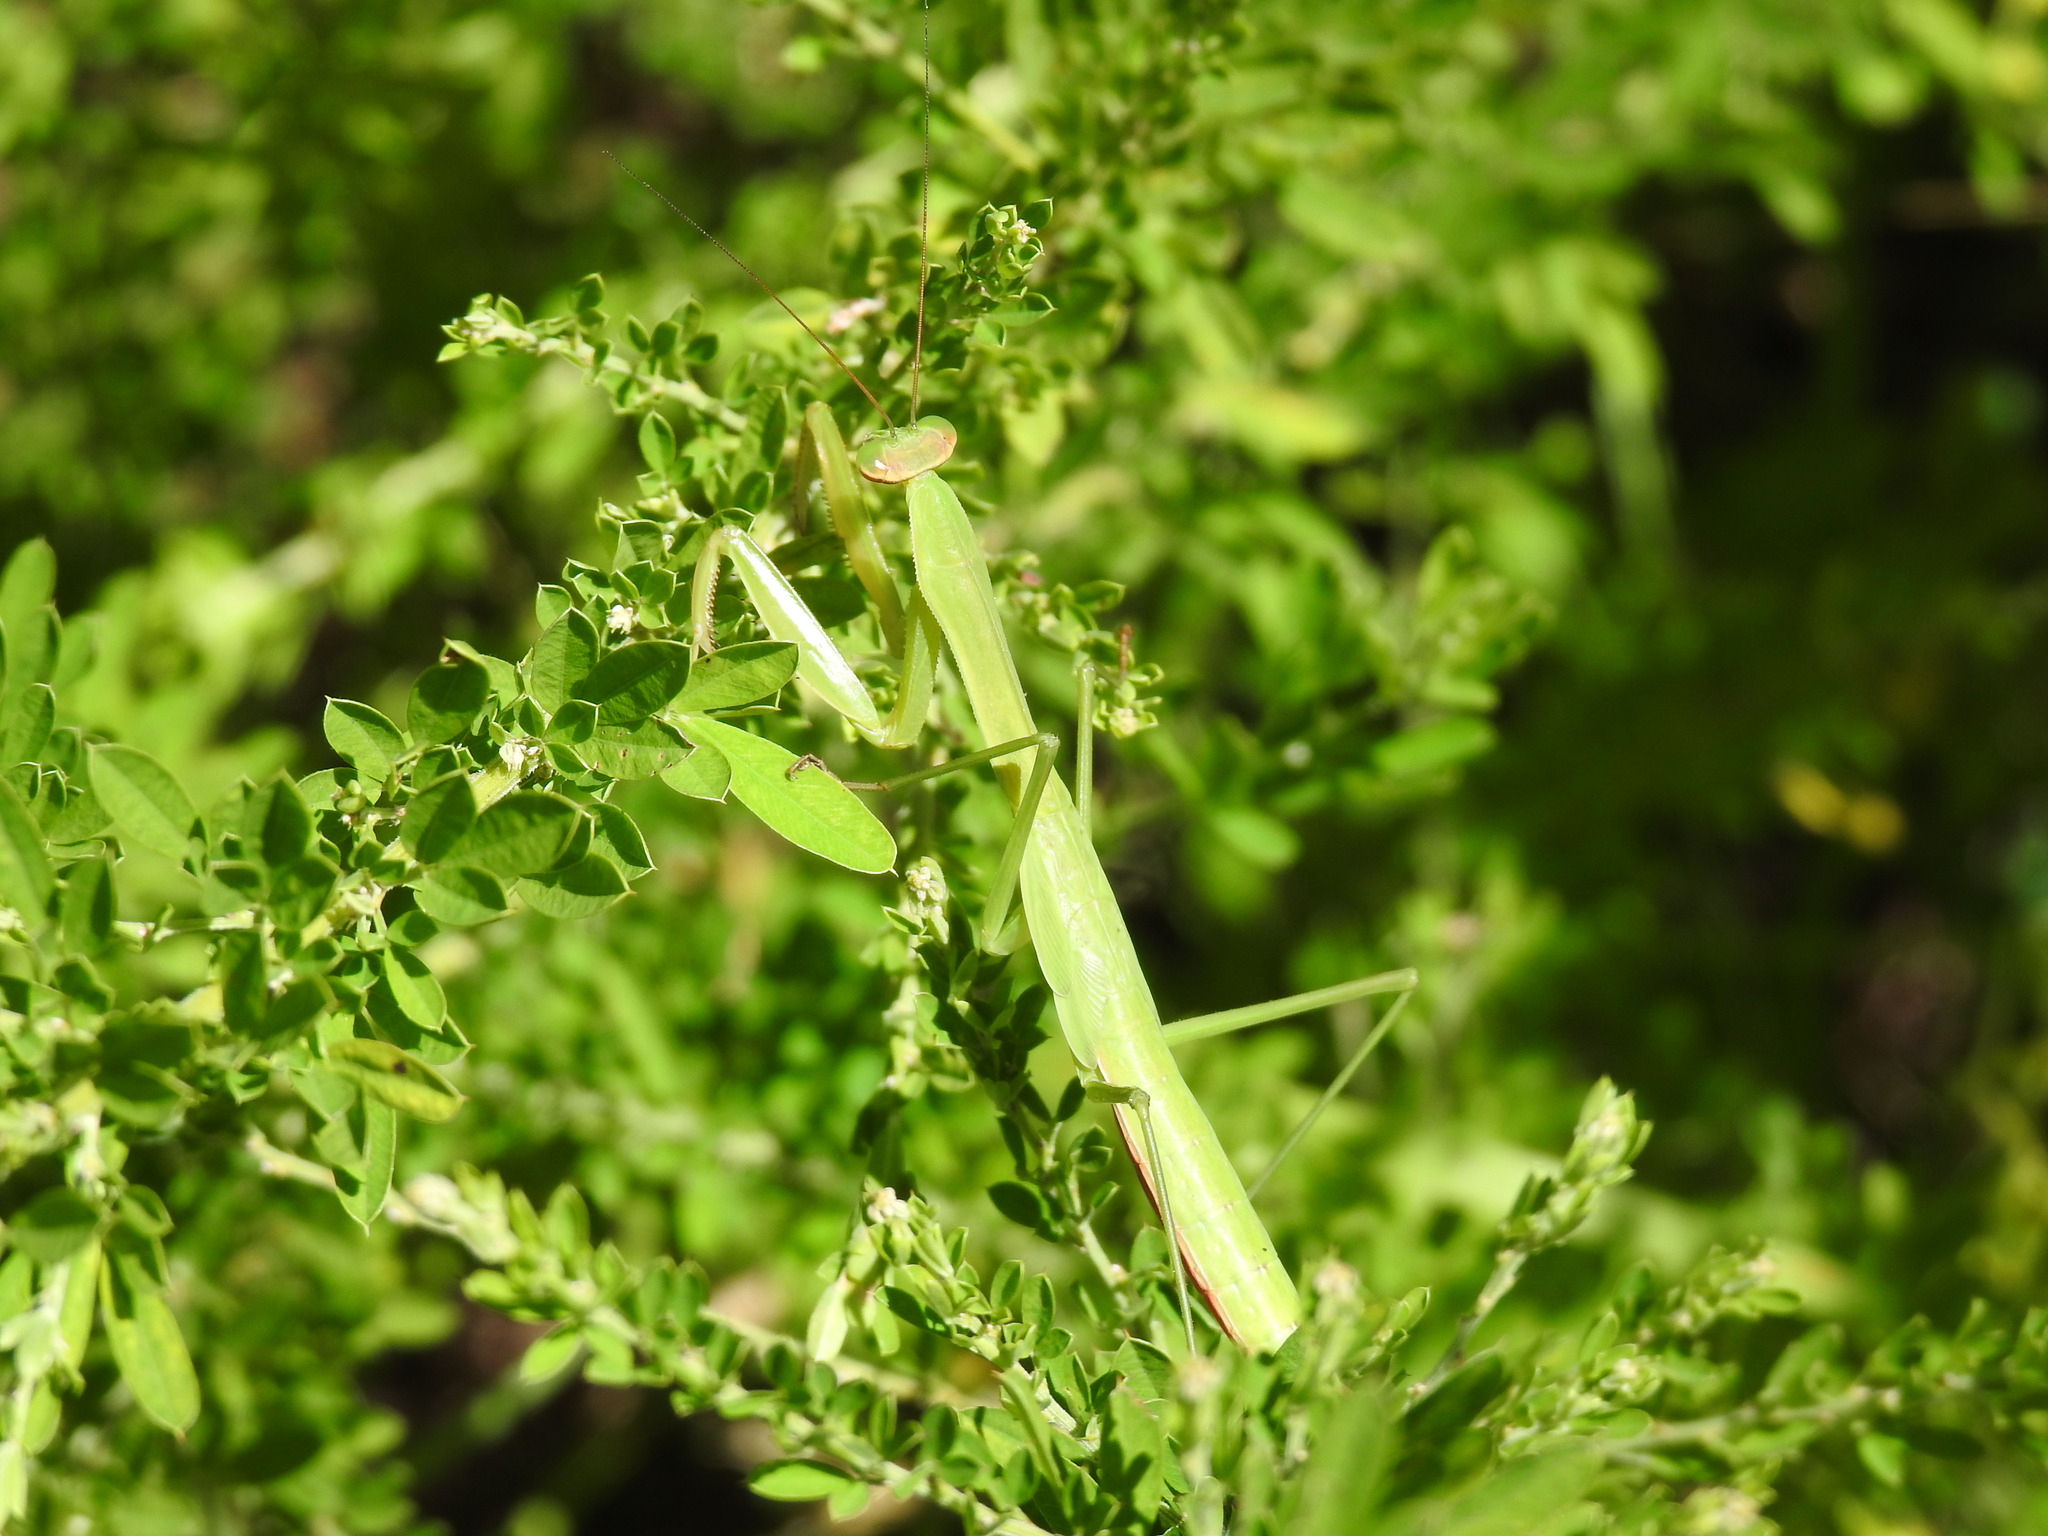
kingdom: Animalia
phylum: Arthropoda
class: Insecta
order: Mantodea
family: Mantidae
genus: Tenodera
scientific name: Tenodera sinensis
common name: Chinese mantis
